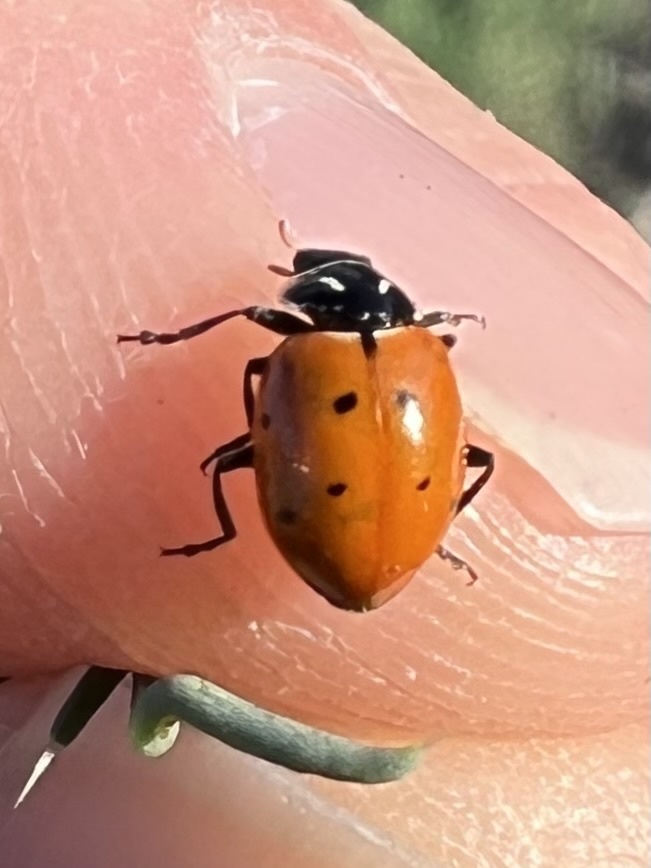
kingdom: Animalia
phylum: Arthropoda
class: Insecta
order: Coleoptera
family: Coccinellidae
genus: Hippodamia
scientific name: Hippodamia convergens
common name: Convergent lady beetle
